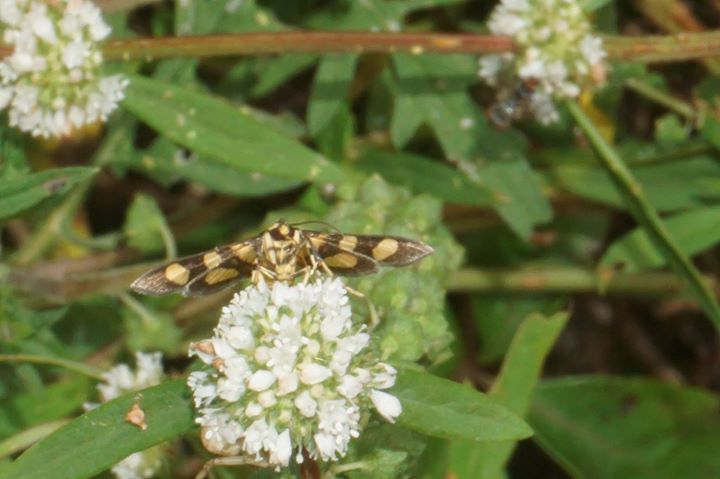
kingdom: Animalia
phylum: Arthropoda
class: Insecta
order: Lepidoptera
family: Crambidae
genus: Syngamia
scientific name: Syngamia florella
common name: Orange-spotted flower moth
